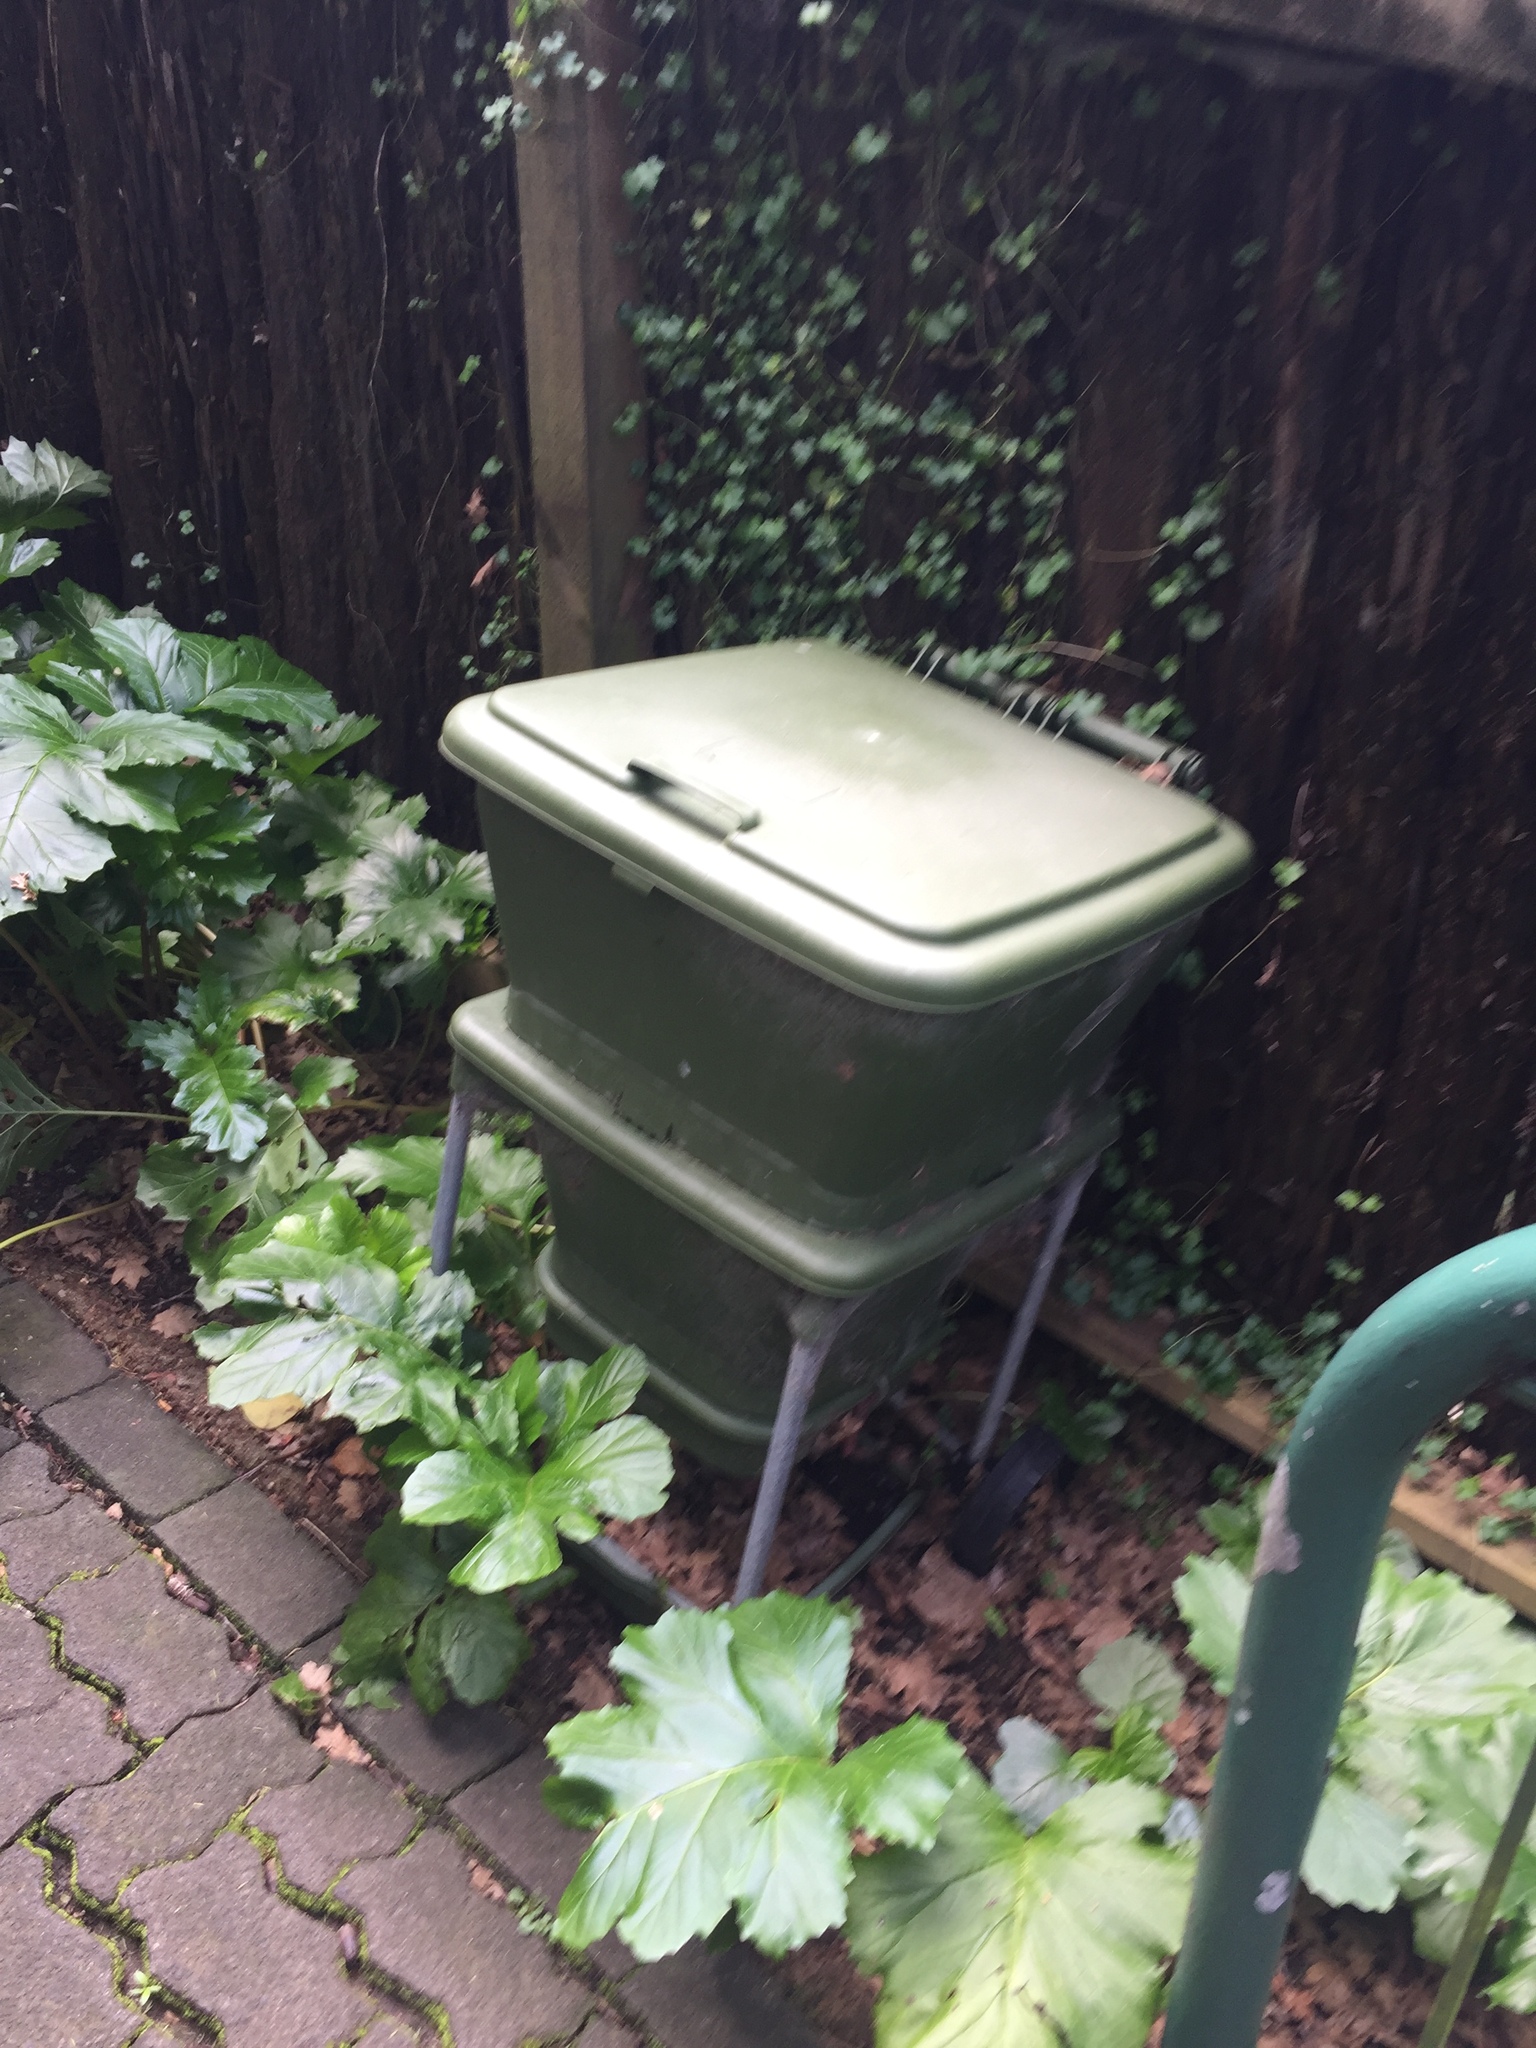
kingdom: Animalia
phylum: Arthropoda
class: Insecta
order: Coleoptera
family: Hydrophilidae
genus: Dactylosternum
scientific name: Dactylosternum abdominale
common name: Water scavenger beetle
